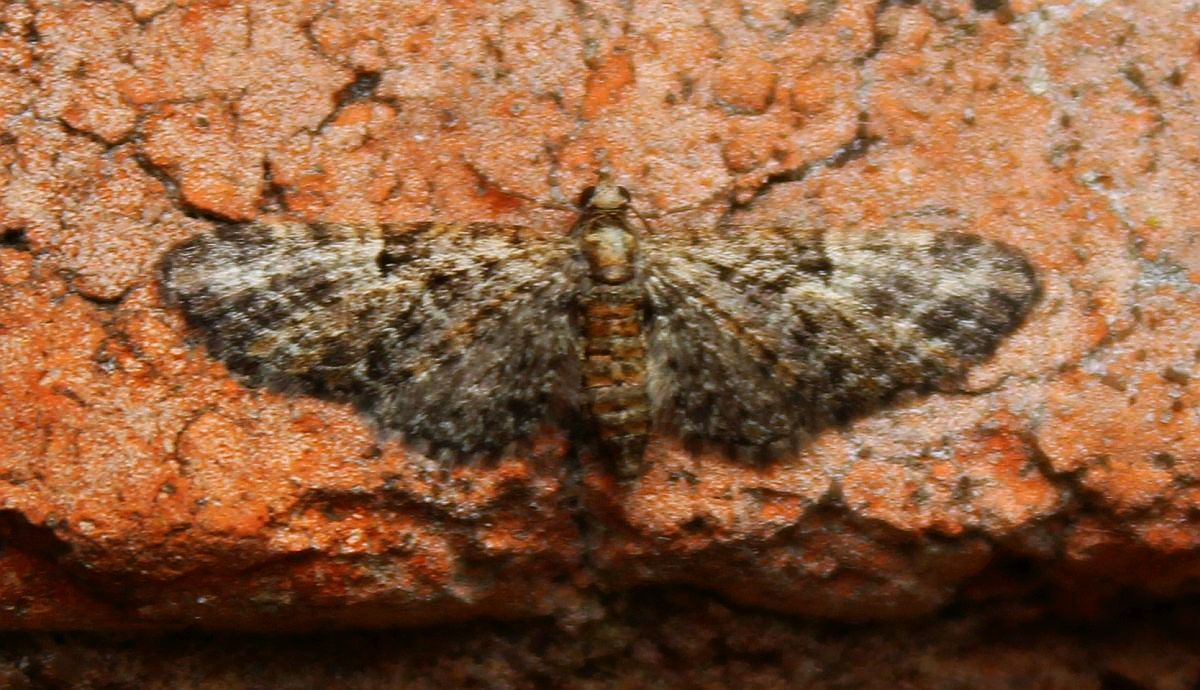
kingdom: Animalia
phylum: Arthropoda
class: Insecta
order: Lepidoptera
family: Geometridae
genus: Eupithecia
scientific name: Eupithecia dodoneata
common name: Oak-tree pug
